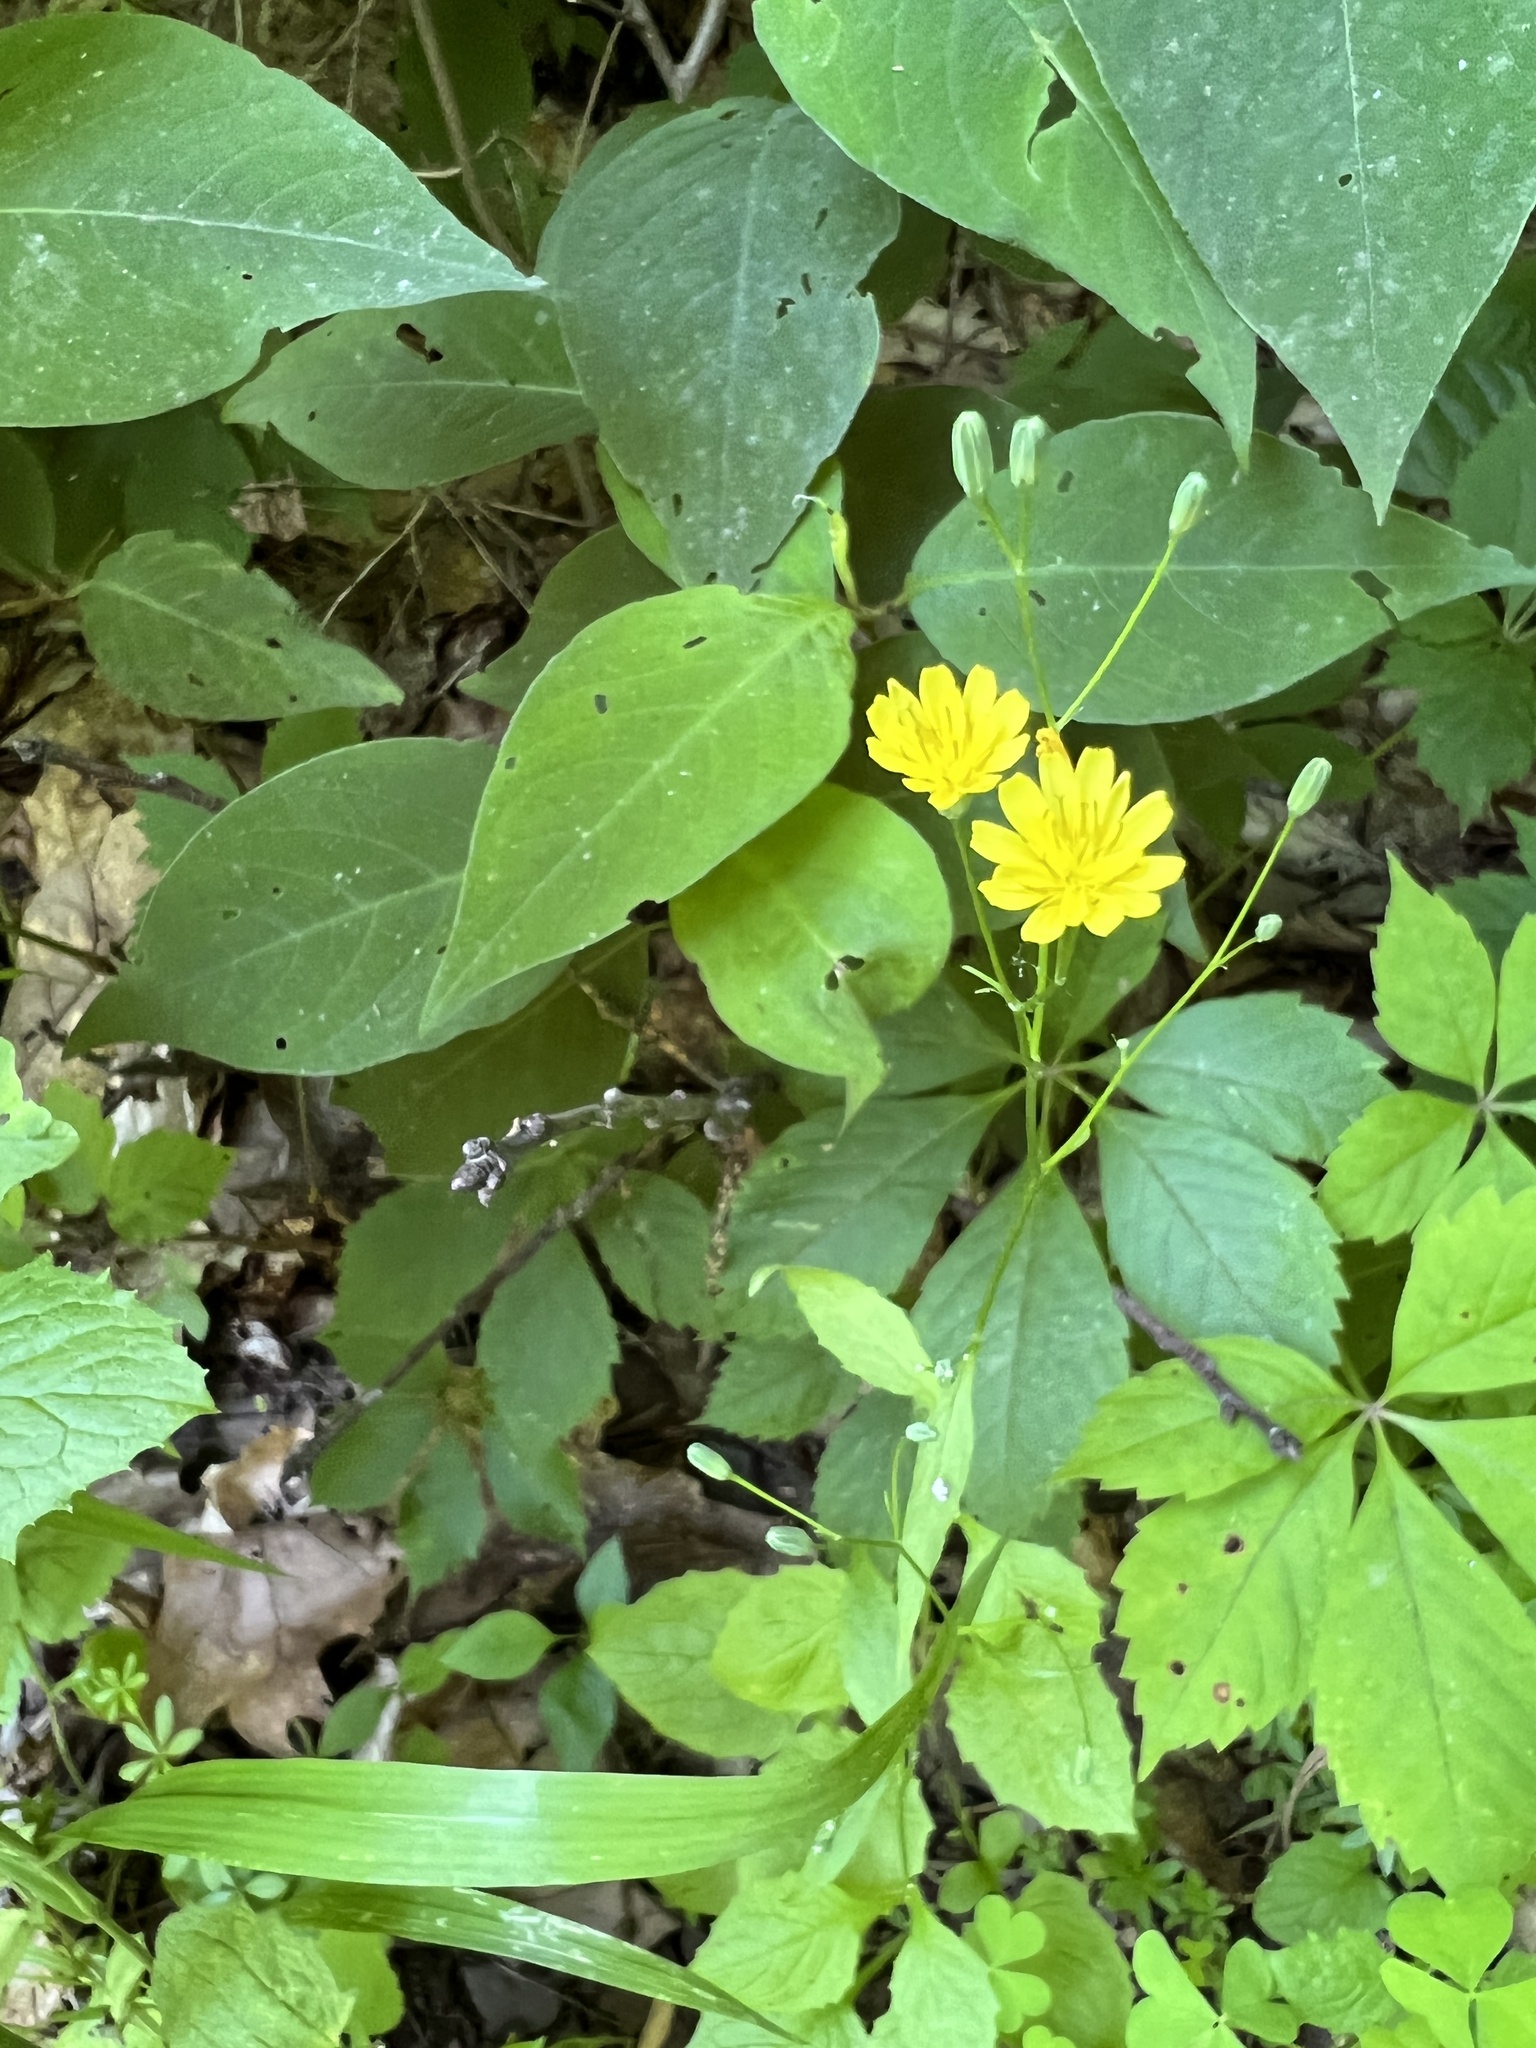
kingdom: Plantae
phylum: Tracheophyta
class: Magnoliopsida
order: Asterales
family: Asteraceae
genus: Lapsana
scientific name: Lapsana communis
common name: Nipplewort
